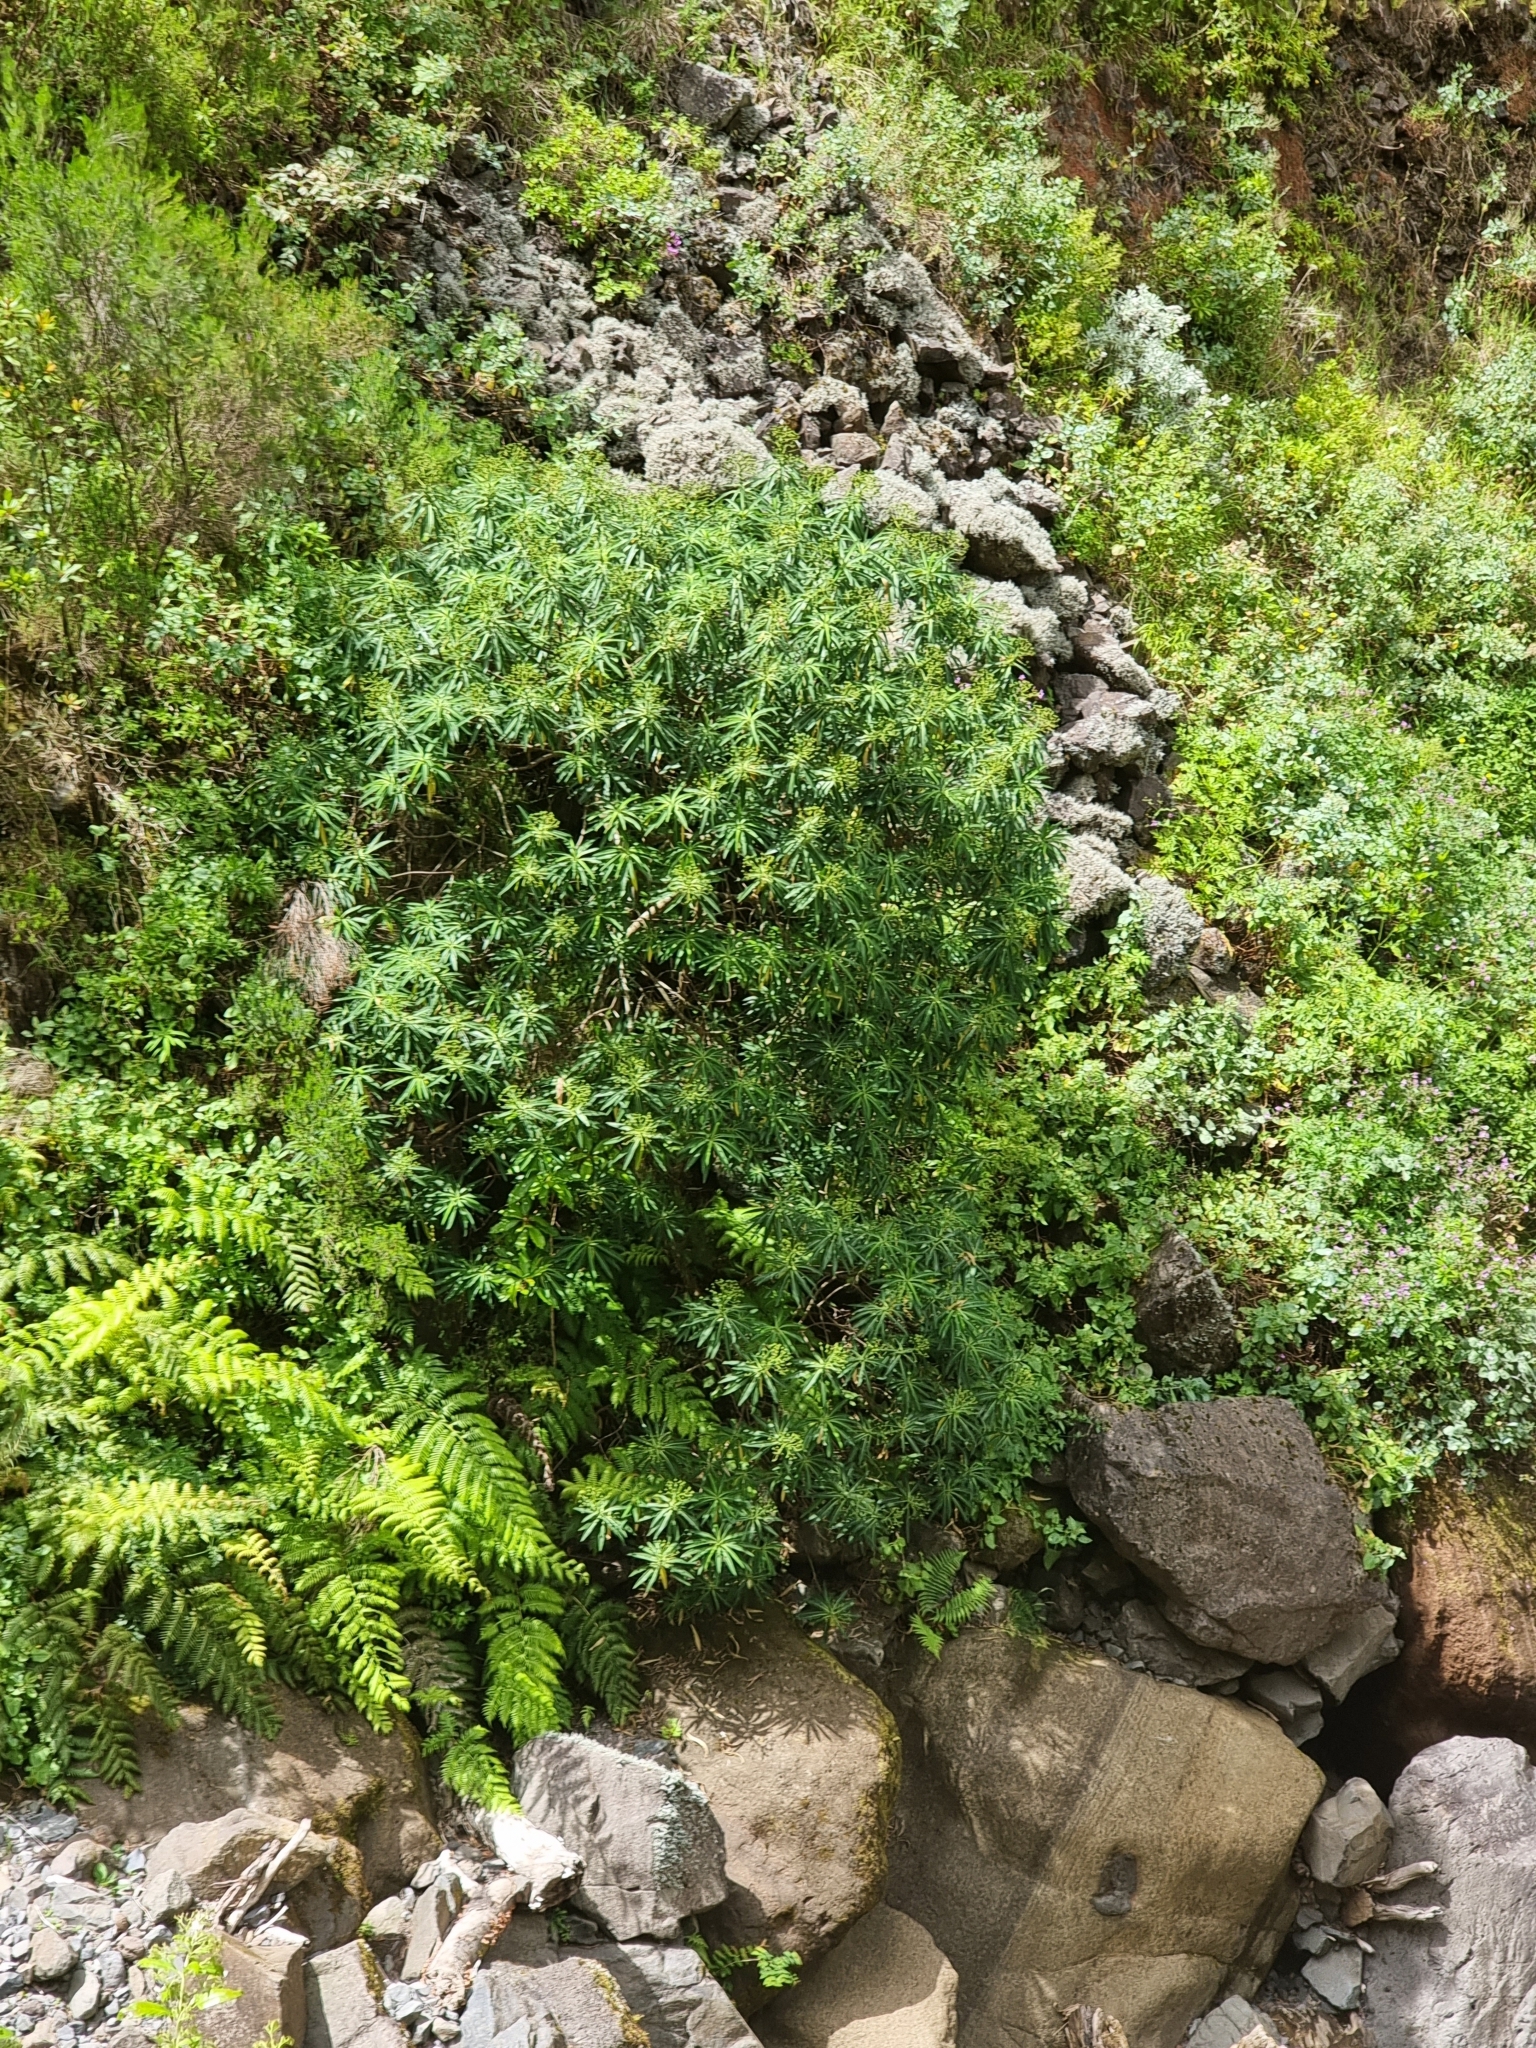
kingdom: Plantae
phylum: Tracheophyta
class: Magnoliopsida
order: Malpighiales
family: Euphorbiaceae
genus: Euphorbia
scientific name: Euphorbia mellifera
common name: Canary spurge
